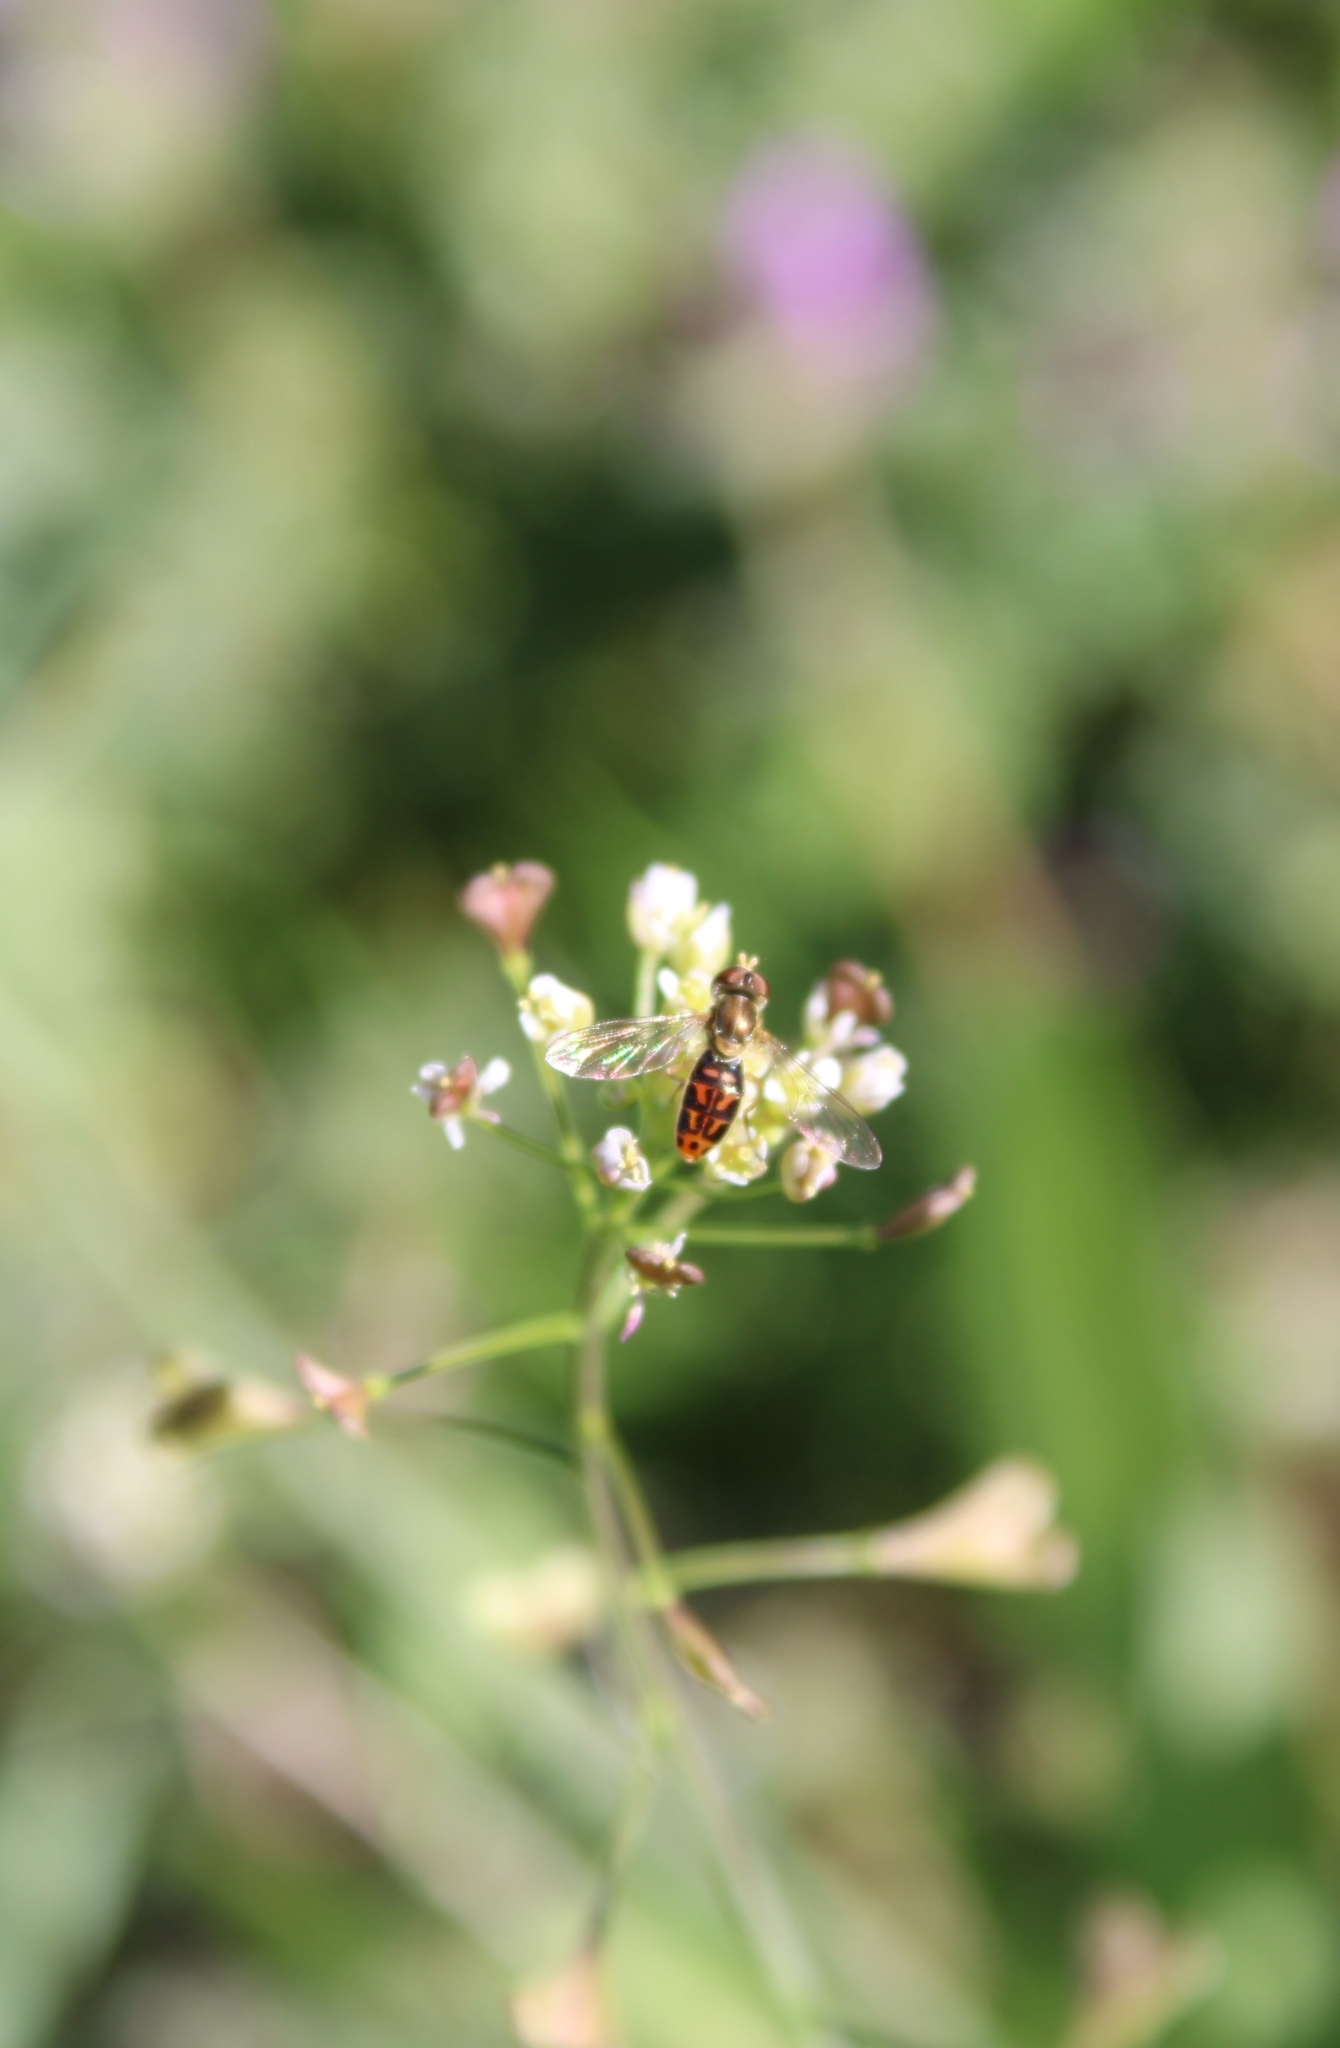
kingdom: Animalia
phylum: Arthropoda
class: Insecta
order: Diptera
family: Syrphidae
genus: Toxomerus
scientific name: Toxomerus marginatus
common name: Syrphid fly
